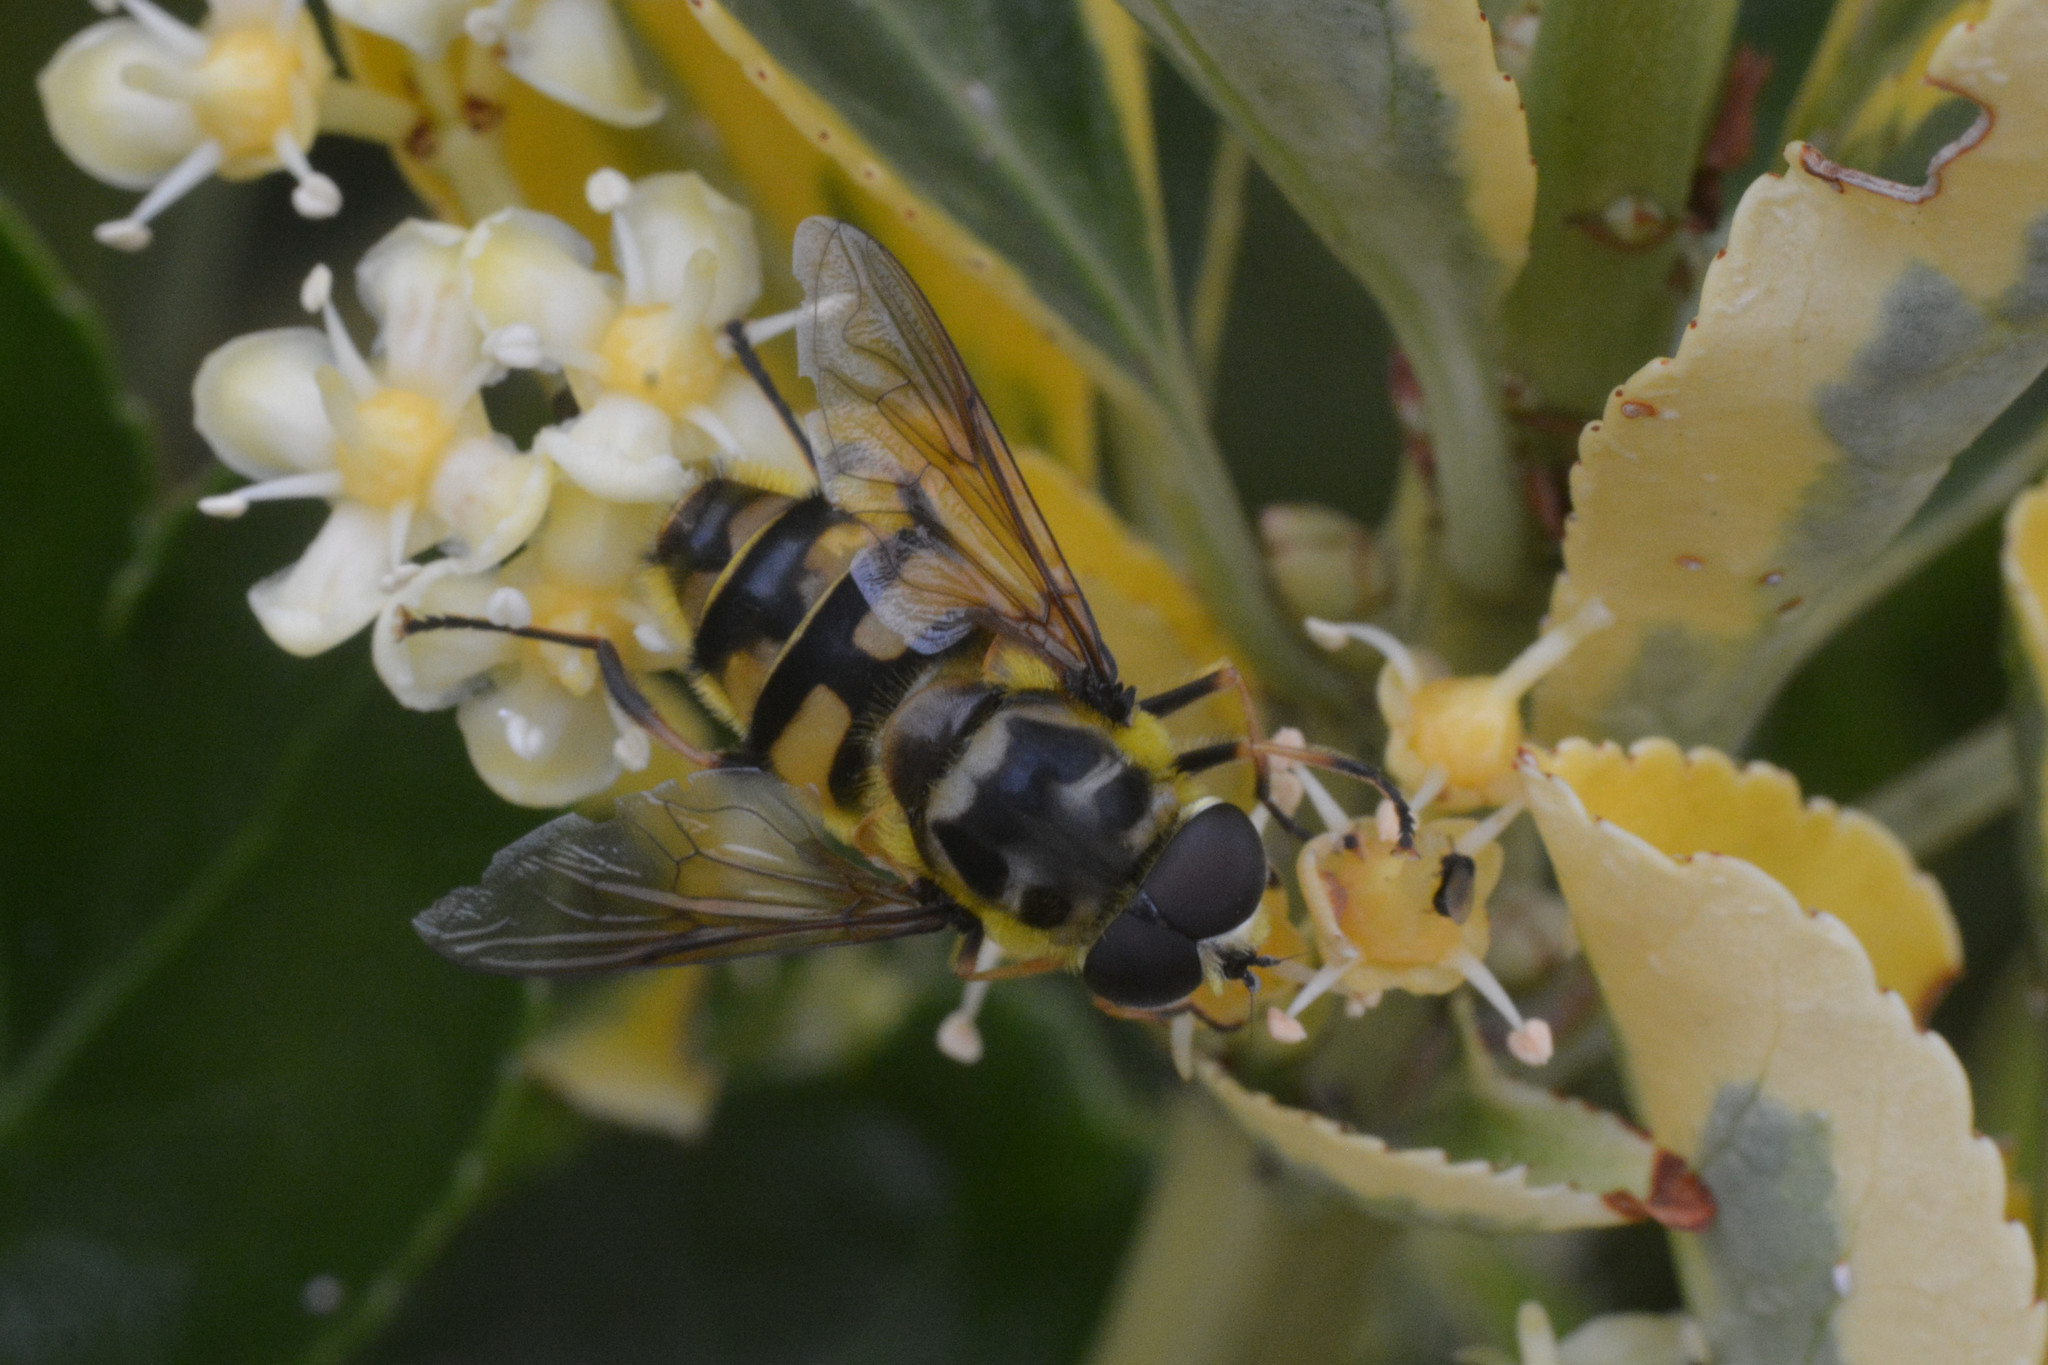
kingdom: Animalia
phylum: Arthropoda
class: Insecta
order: Diptera
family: Syrphidae
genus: Myathropa
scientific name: Myathropa florea
